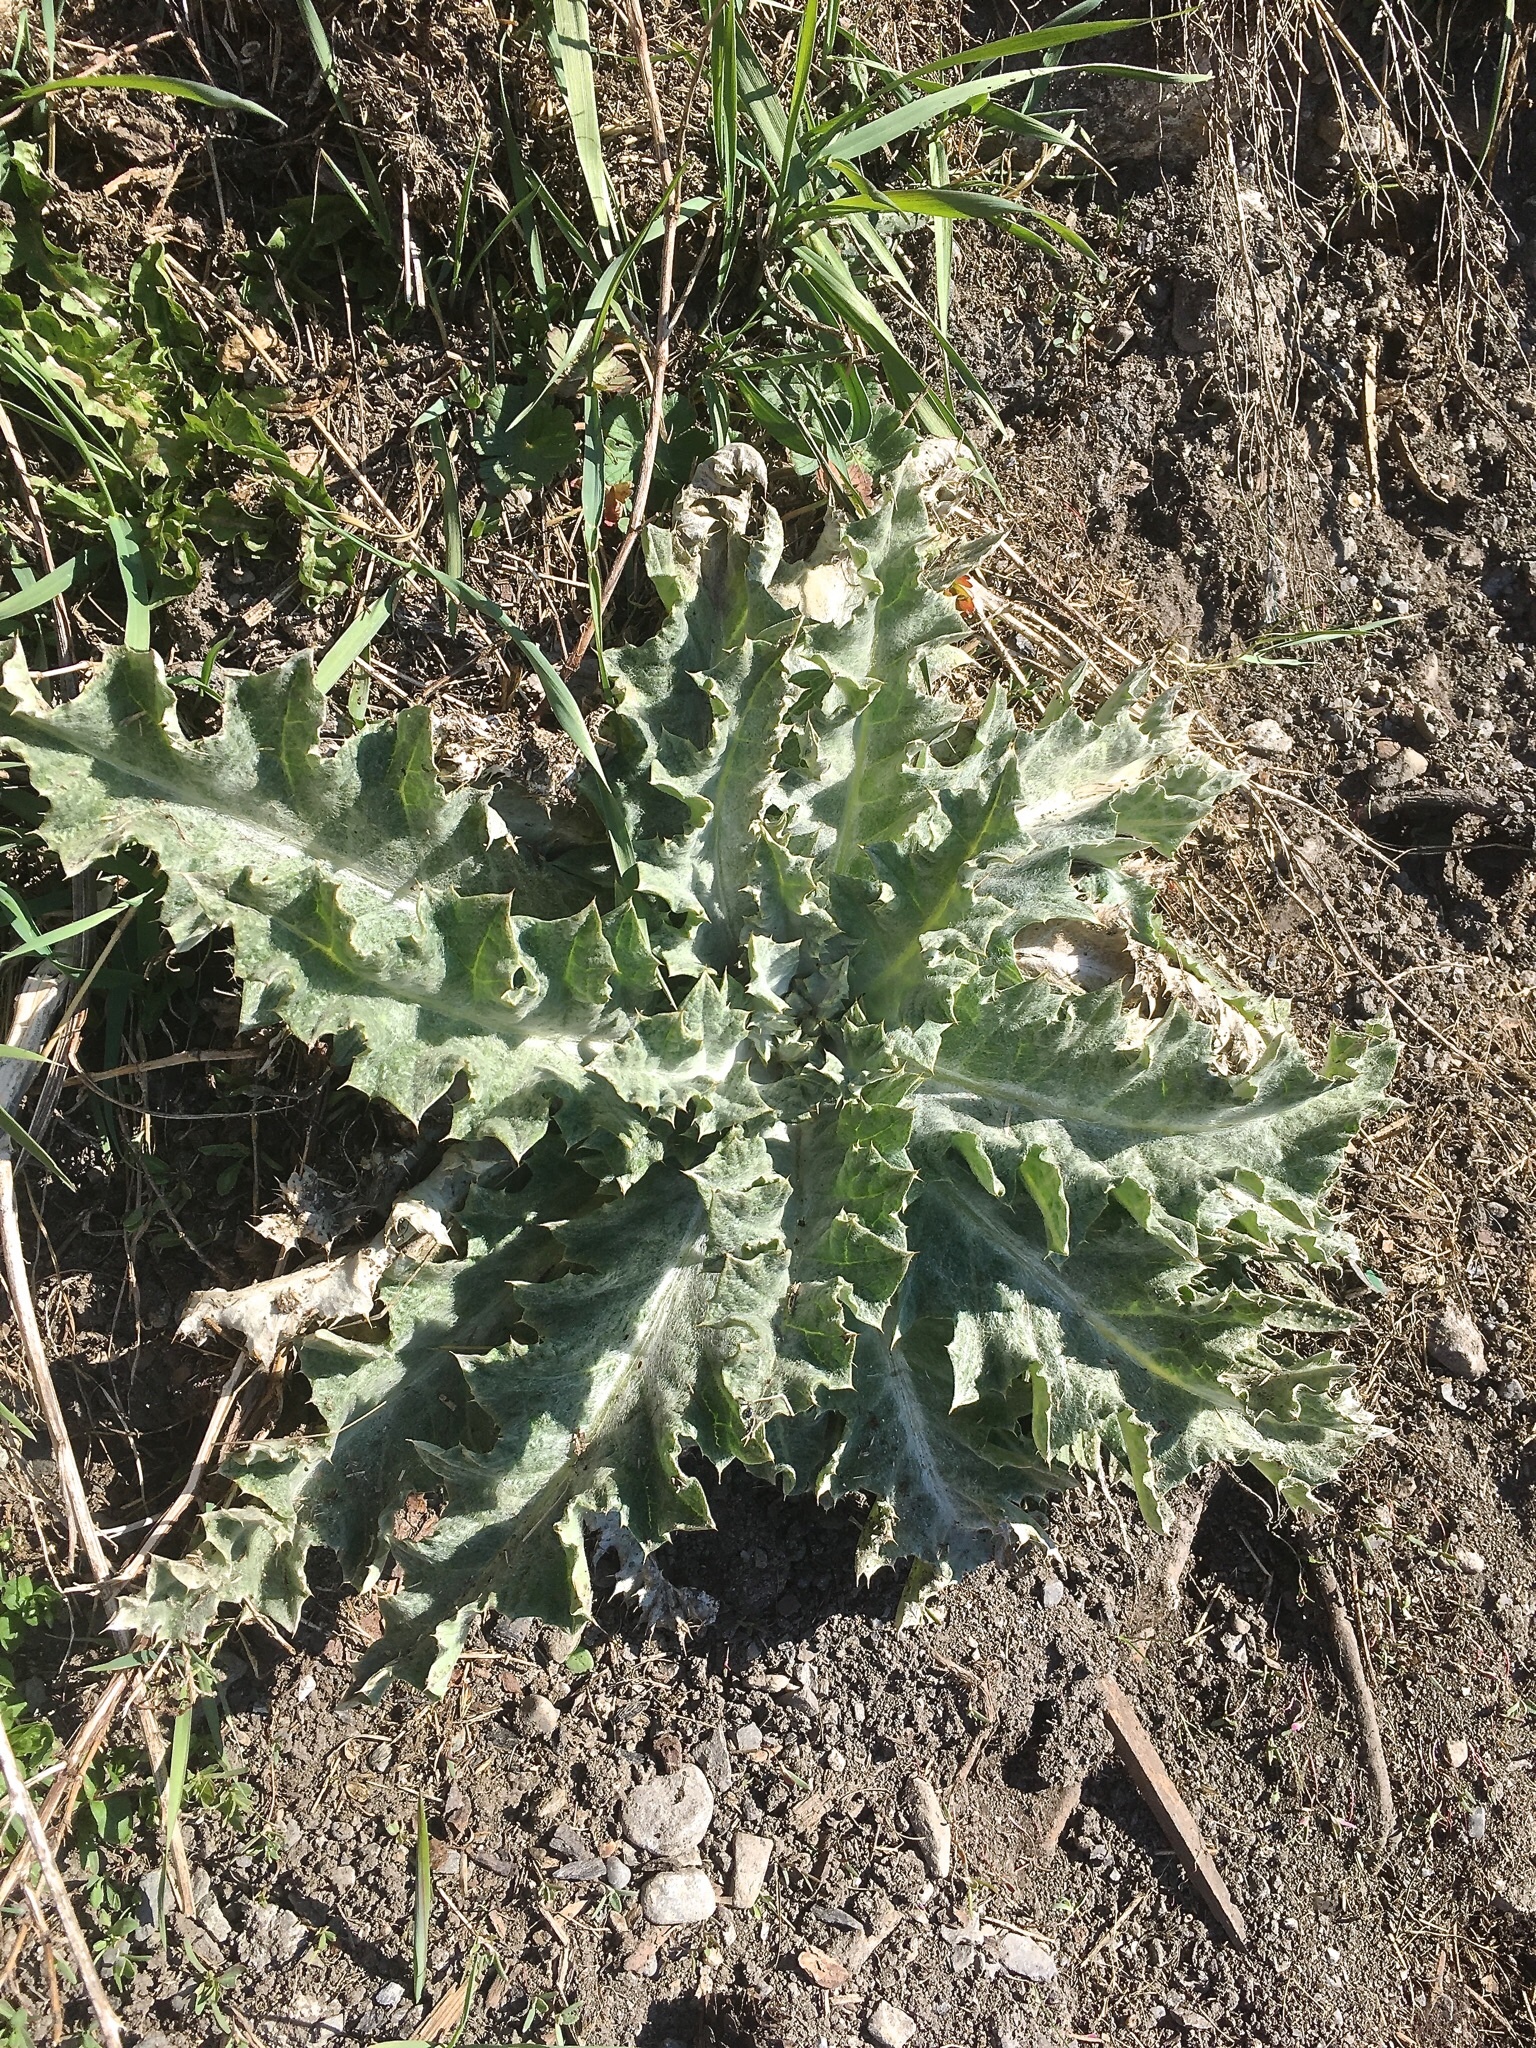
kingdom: Plantae
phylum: Tracheophyta
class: Magnoliopsida
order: Asterales
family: Asteraceae
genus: Onopordum
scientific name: Onopordum acanthium
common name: Scotch thistle
